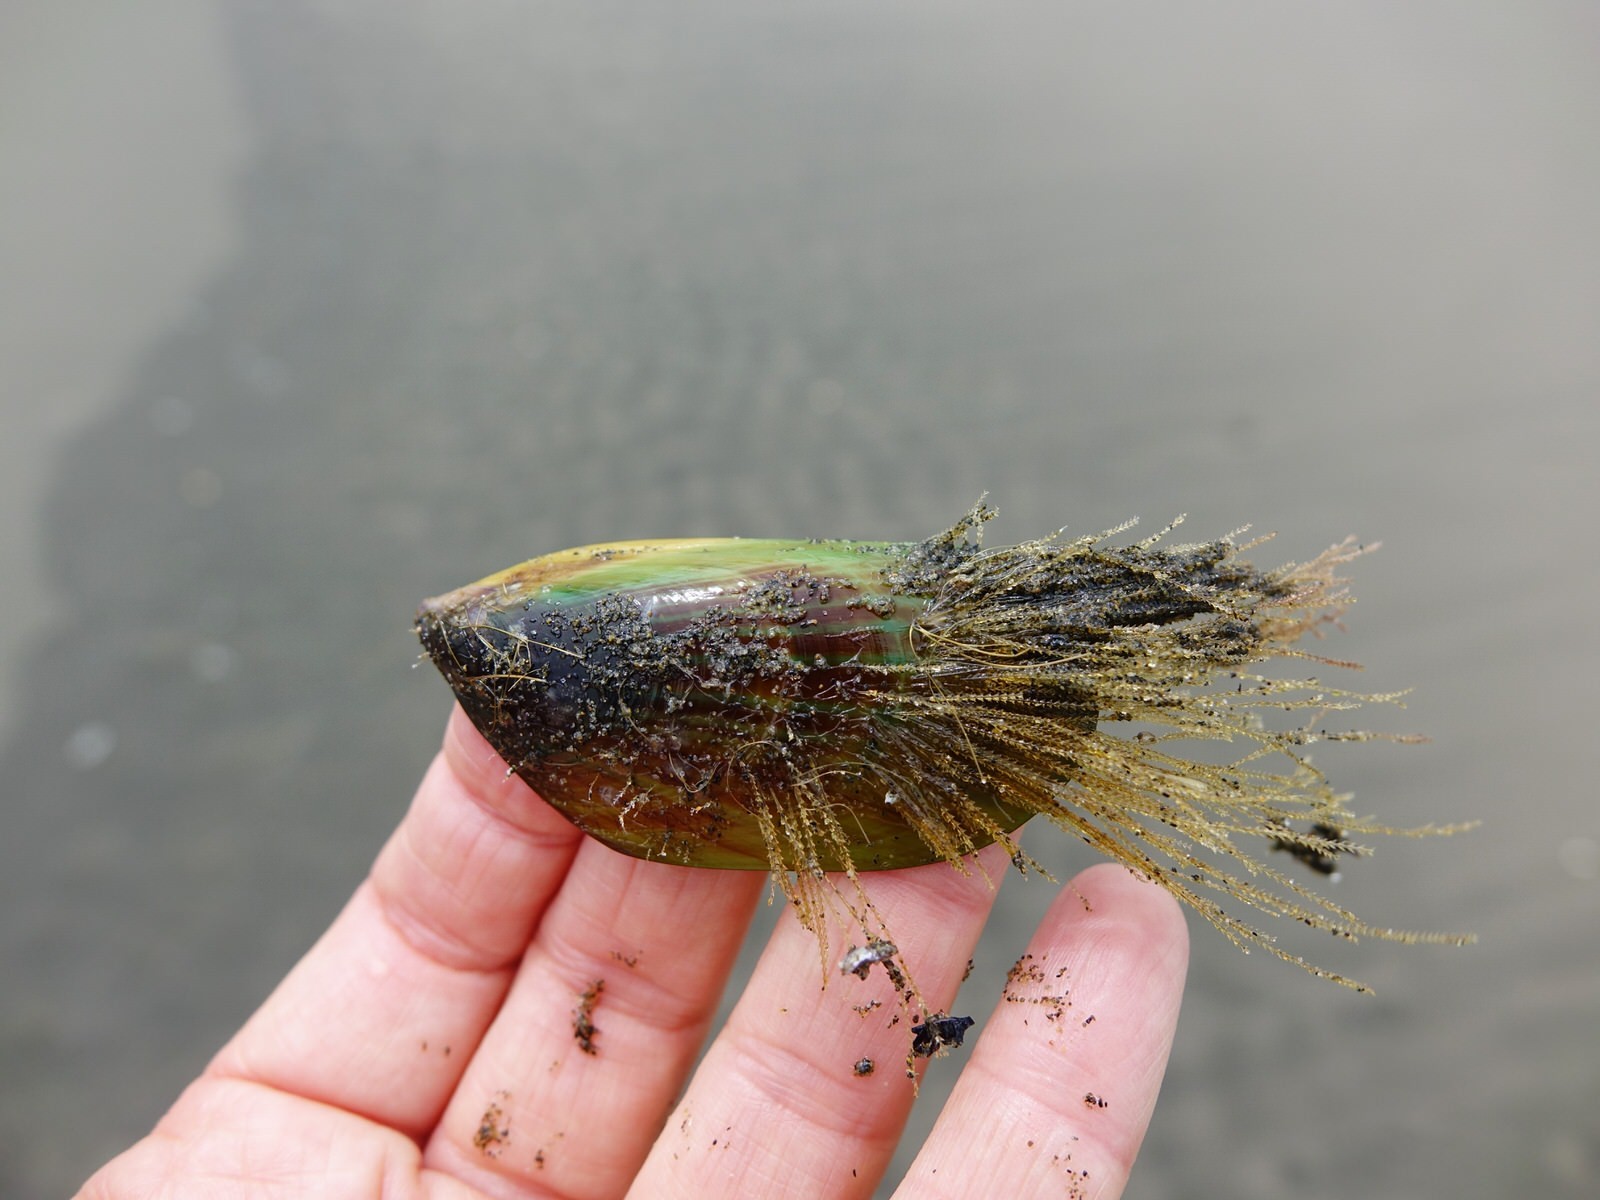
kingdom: Animalia
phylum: Cnidaria
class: Hydrozoa
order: Leptothecata
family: Sertulariidae
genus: Amphisbetia
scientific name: Amphisbetia bispinosa
